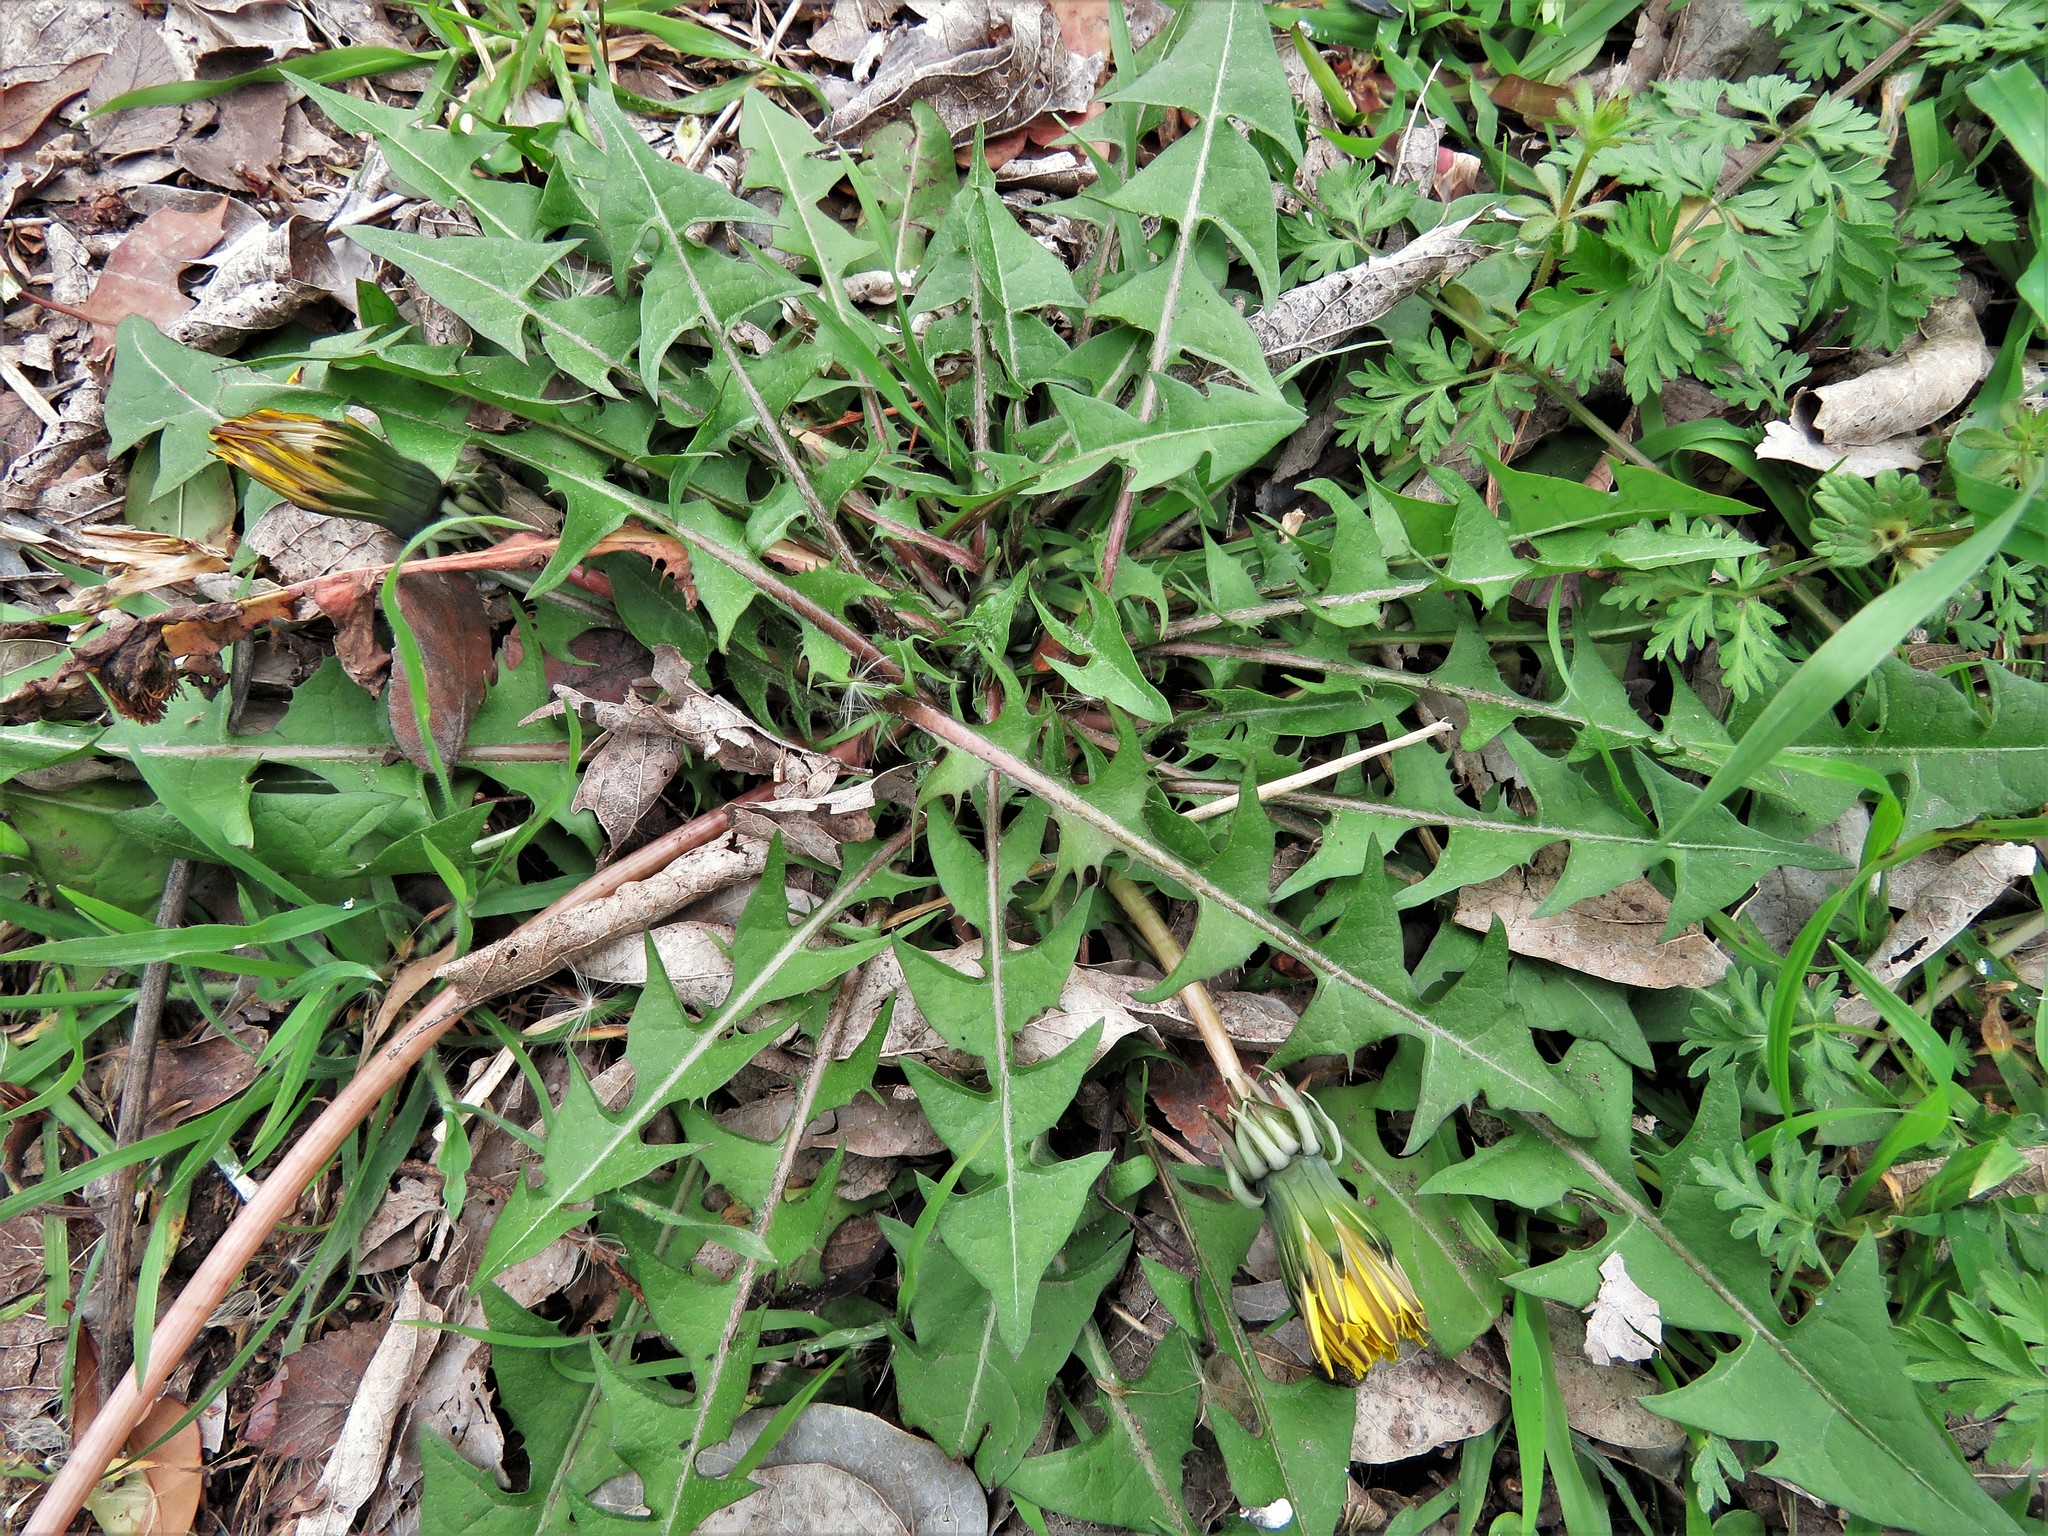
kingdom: Plantae
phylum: Tracheophyta
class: Magnoliopsida
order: Asterales
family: Asteraceae
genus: Taraxacum
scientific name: Taraxacum officinale
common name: Common dandelion
